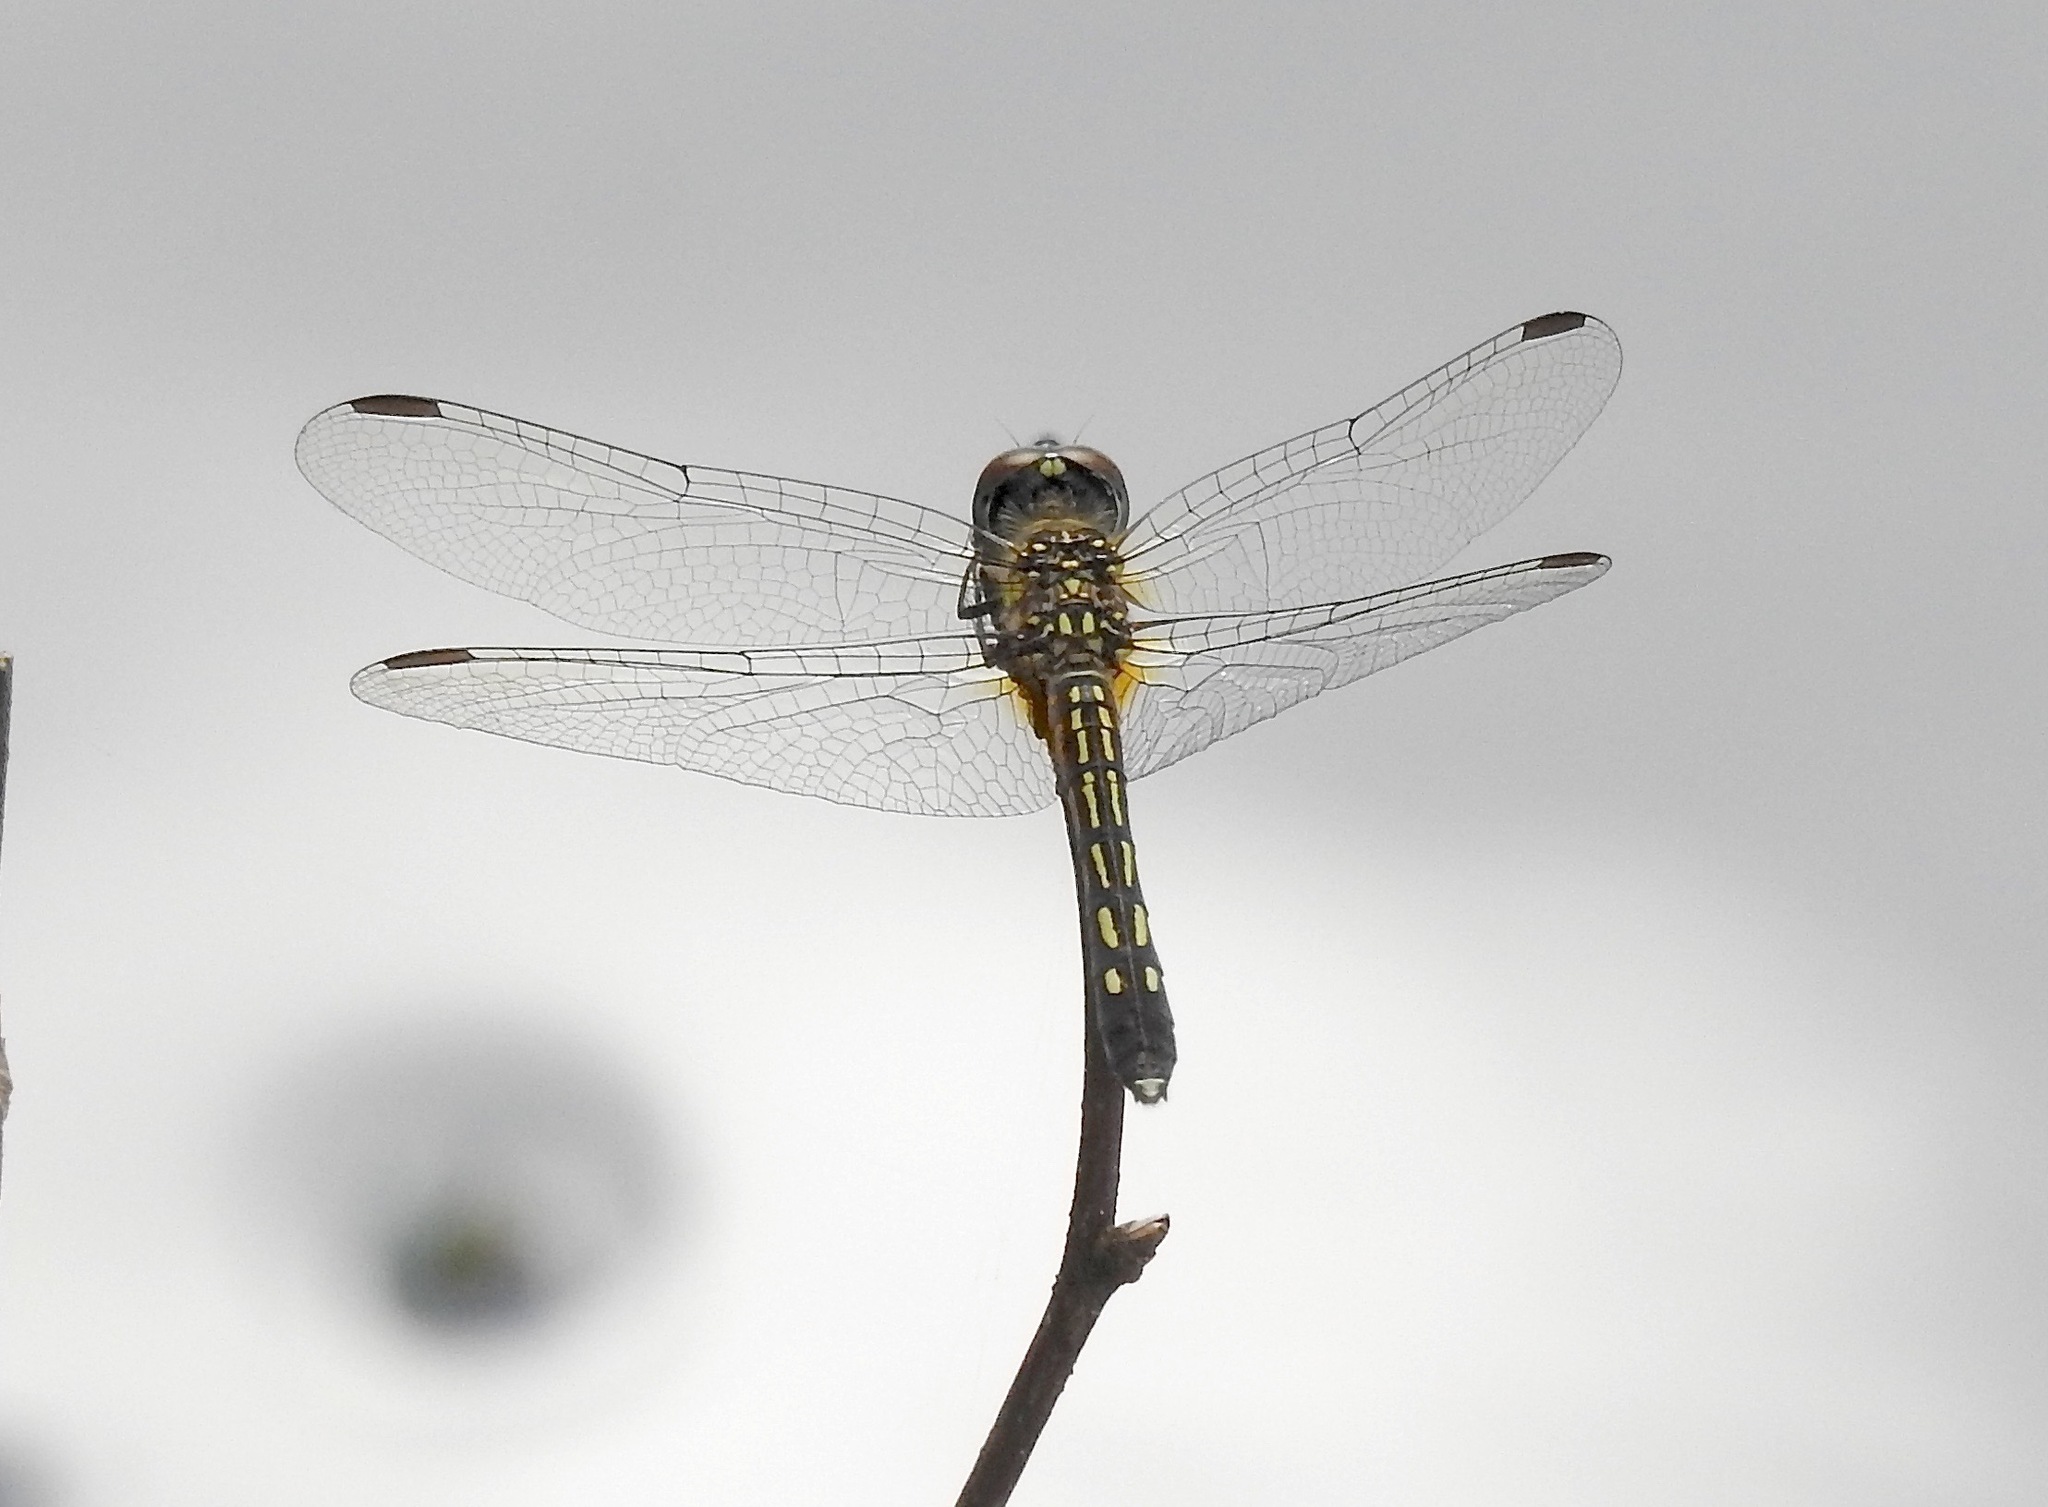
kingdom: Animalia
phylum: Arthropoda
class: Insecta
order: Odonata
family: Libellulidae
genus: Pachydiplax
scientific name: Pachydiplax longipennis
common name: Blue dasher
